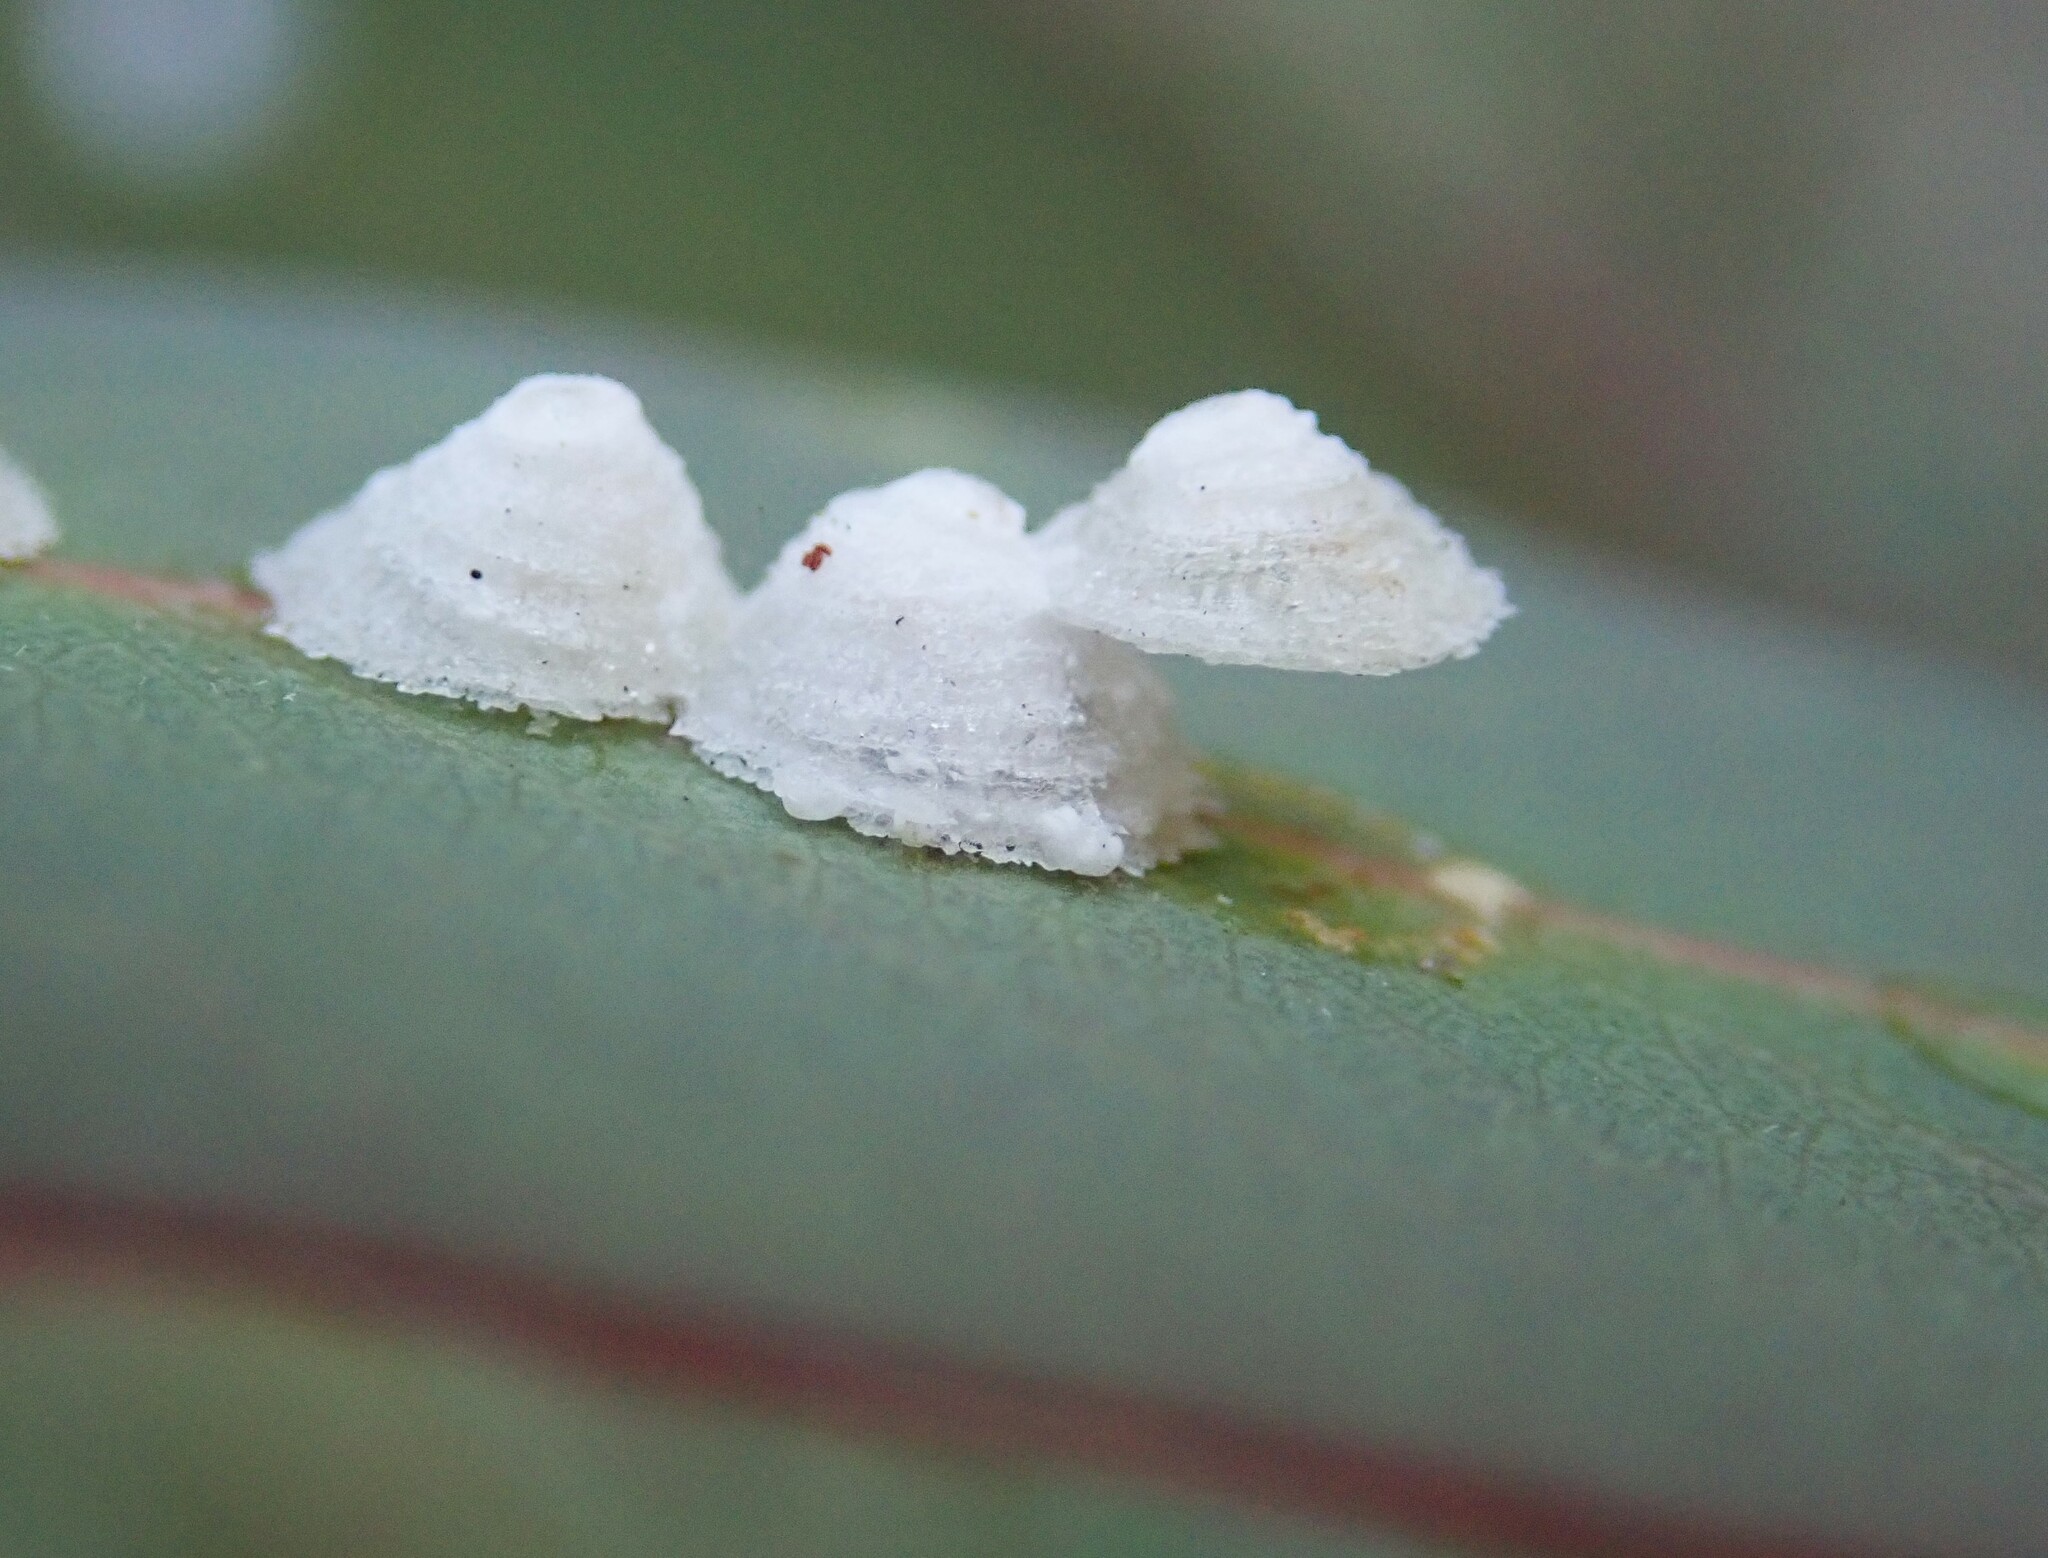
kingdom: Animalia
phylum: Arthropoda
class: Insecta
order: Hemiptera
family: Aphalaridae
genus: Glycaspis
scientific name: Glycaspis brimblecombei
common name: Red gum lerp psyllid
